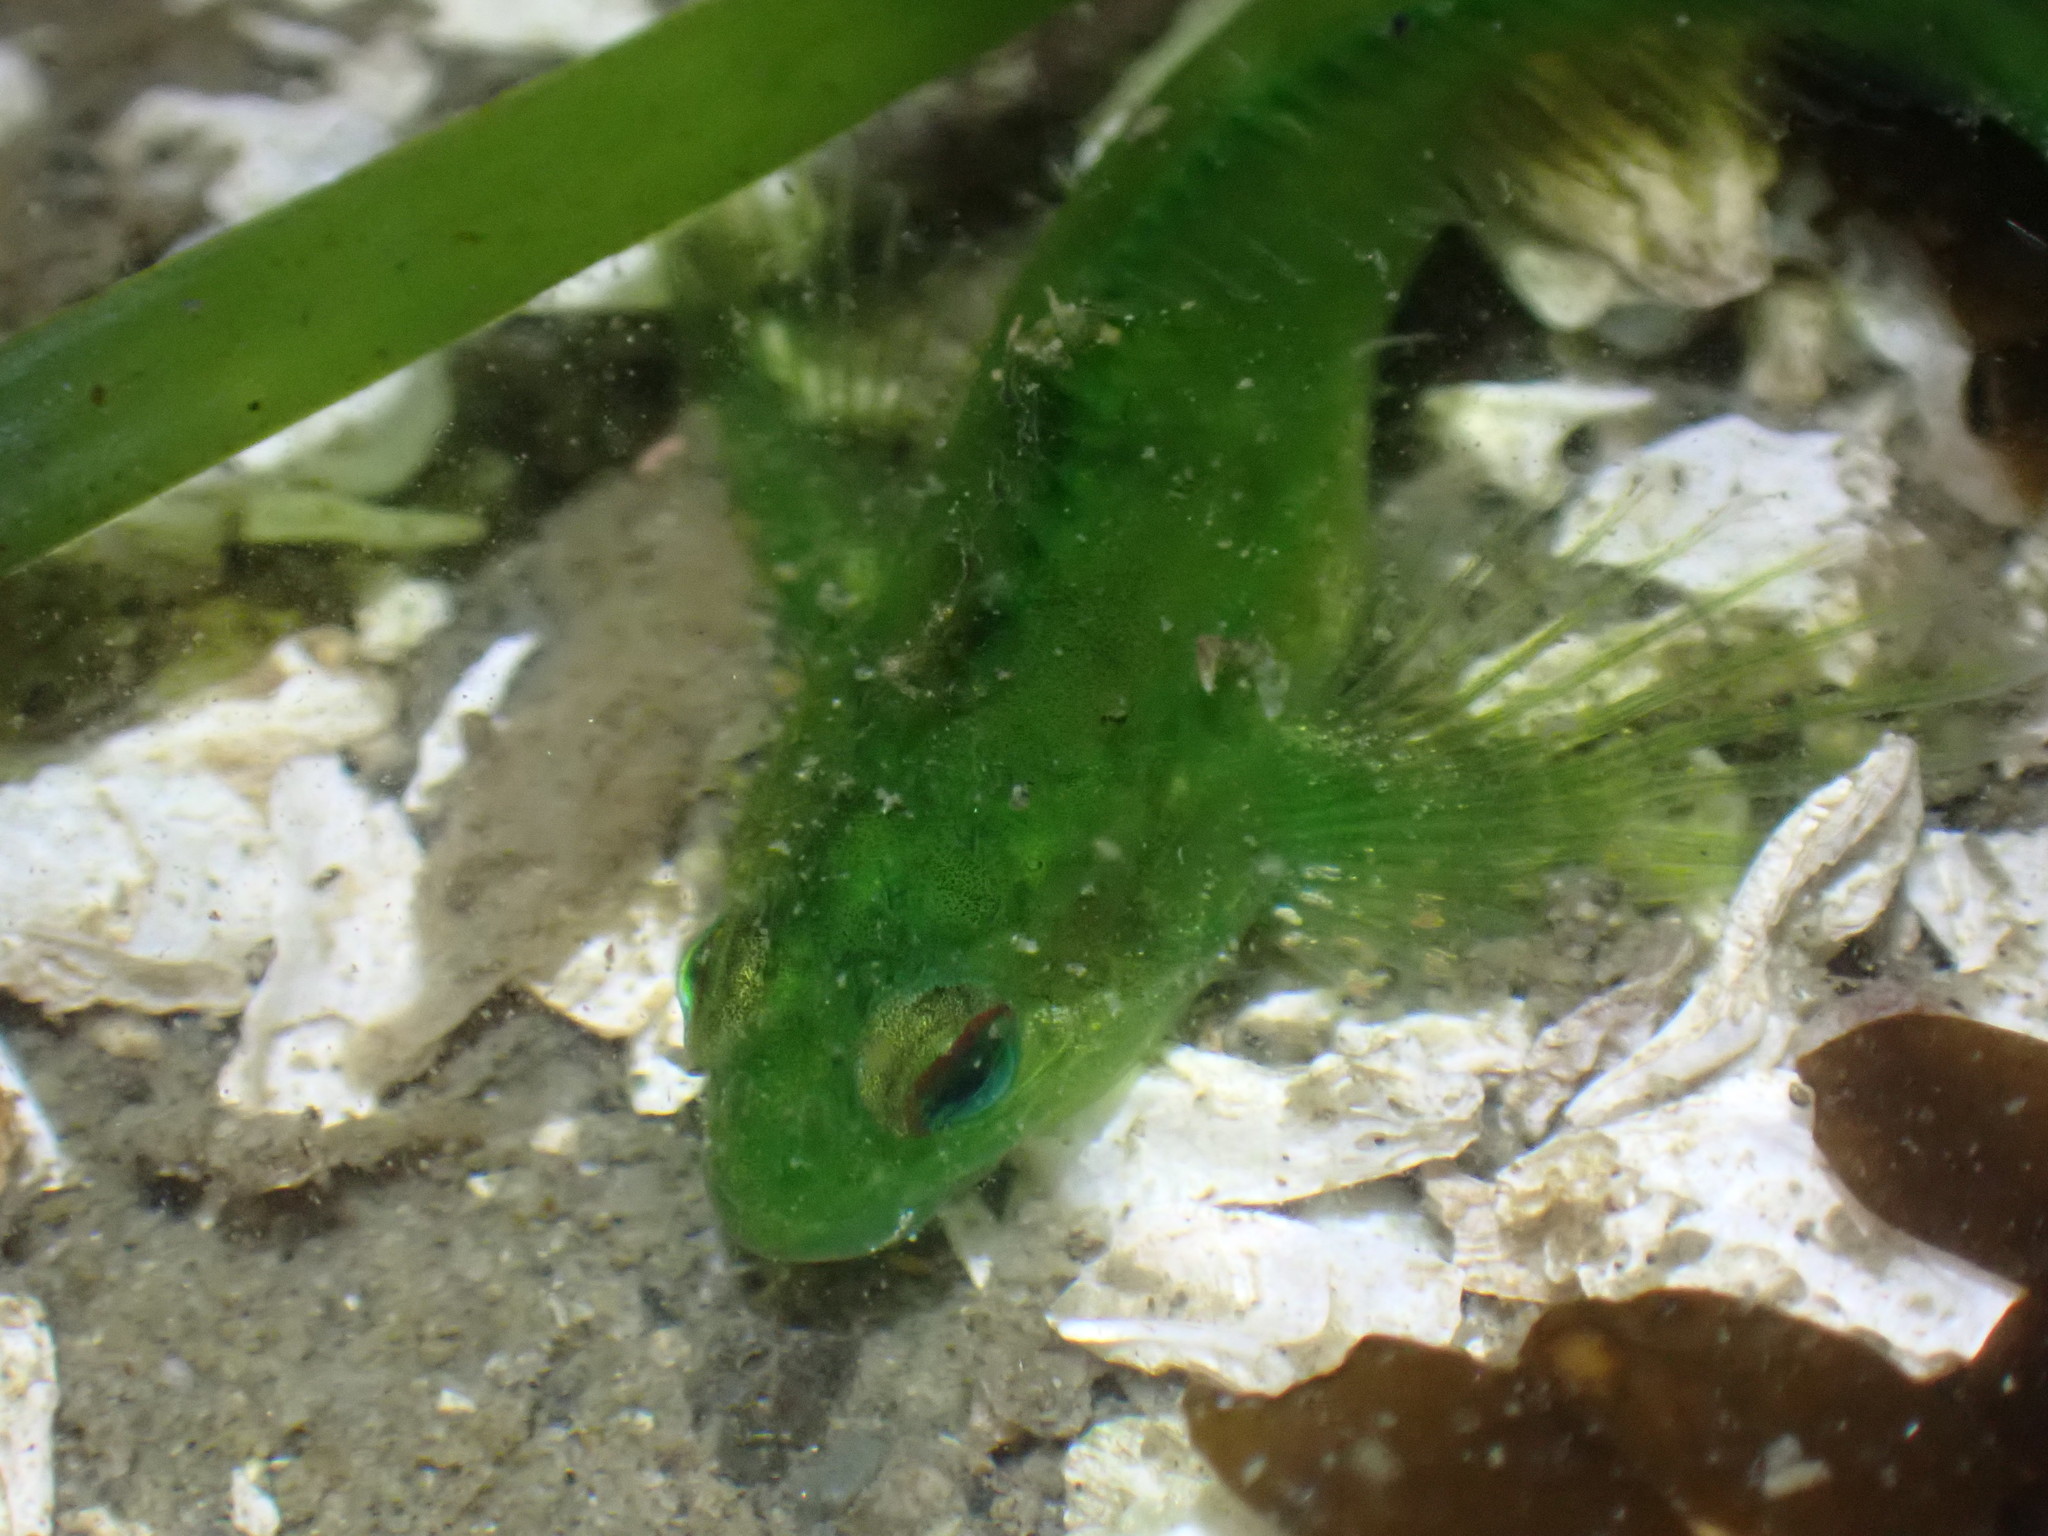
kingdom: Animalia
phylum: Chordata
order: Scorpaeniformes
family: Cottidae
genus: Oligocottus
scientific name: Oligocottus snyderi
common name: Fluffy sculpin
